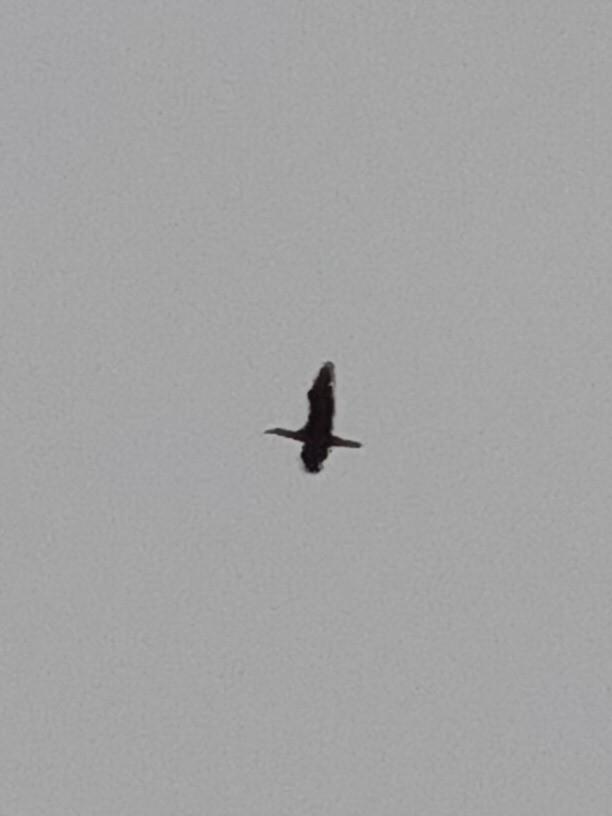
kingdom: Animalia
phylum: Chordata
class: Aves
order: Suliformes
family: Phalacrocoracidae
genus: Phalacrocorax
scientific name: Phalacrocorax carbo
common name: Great cormorant
